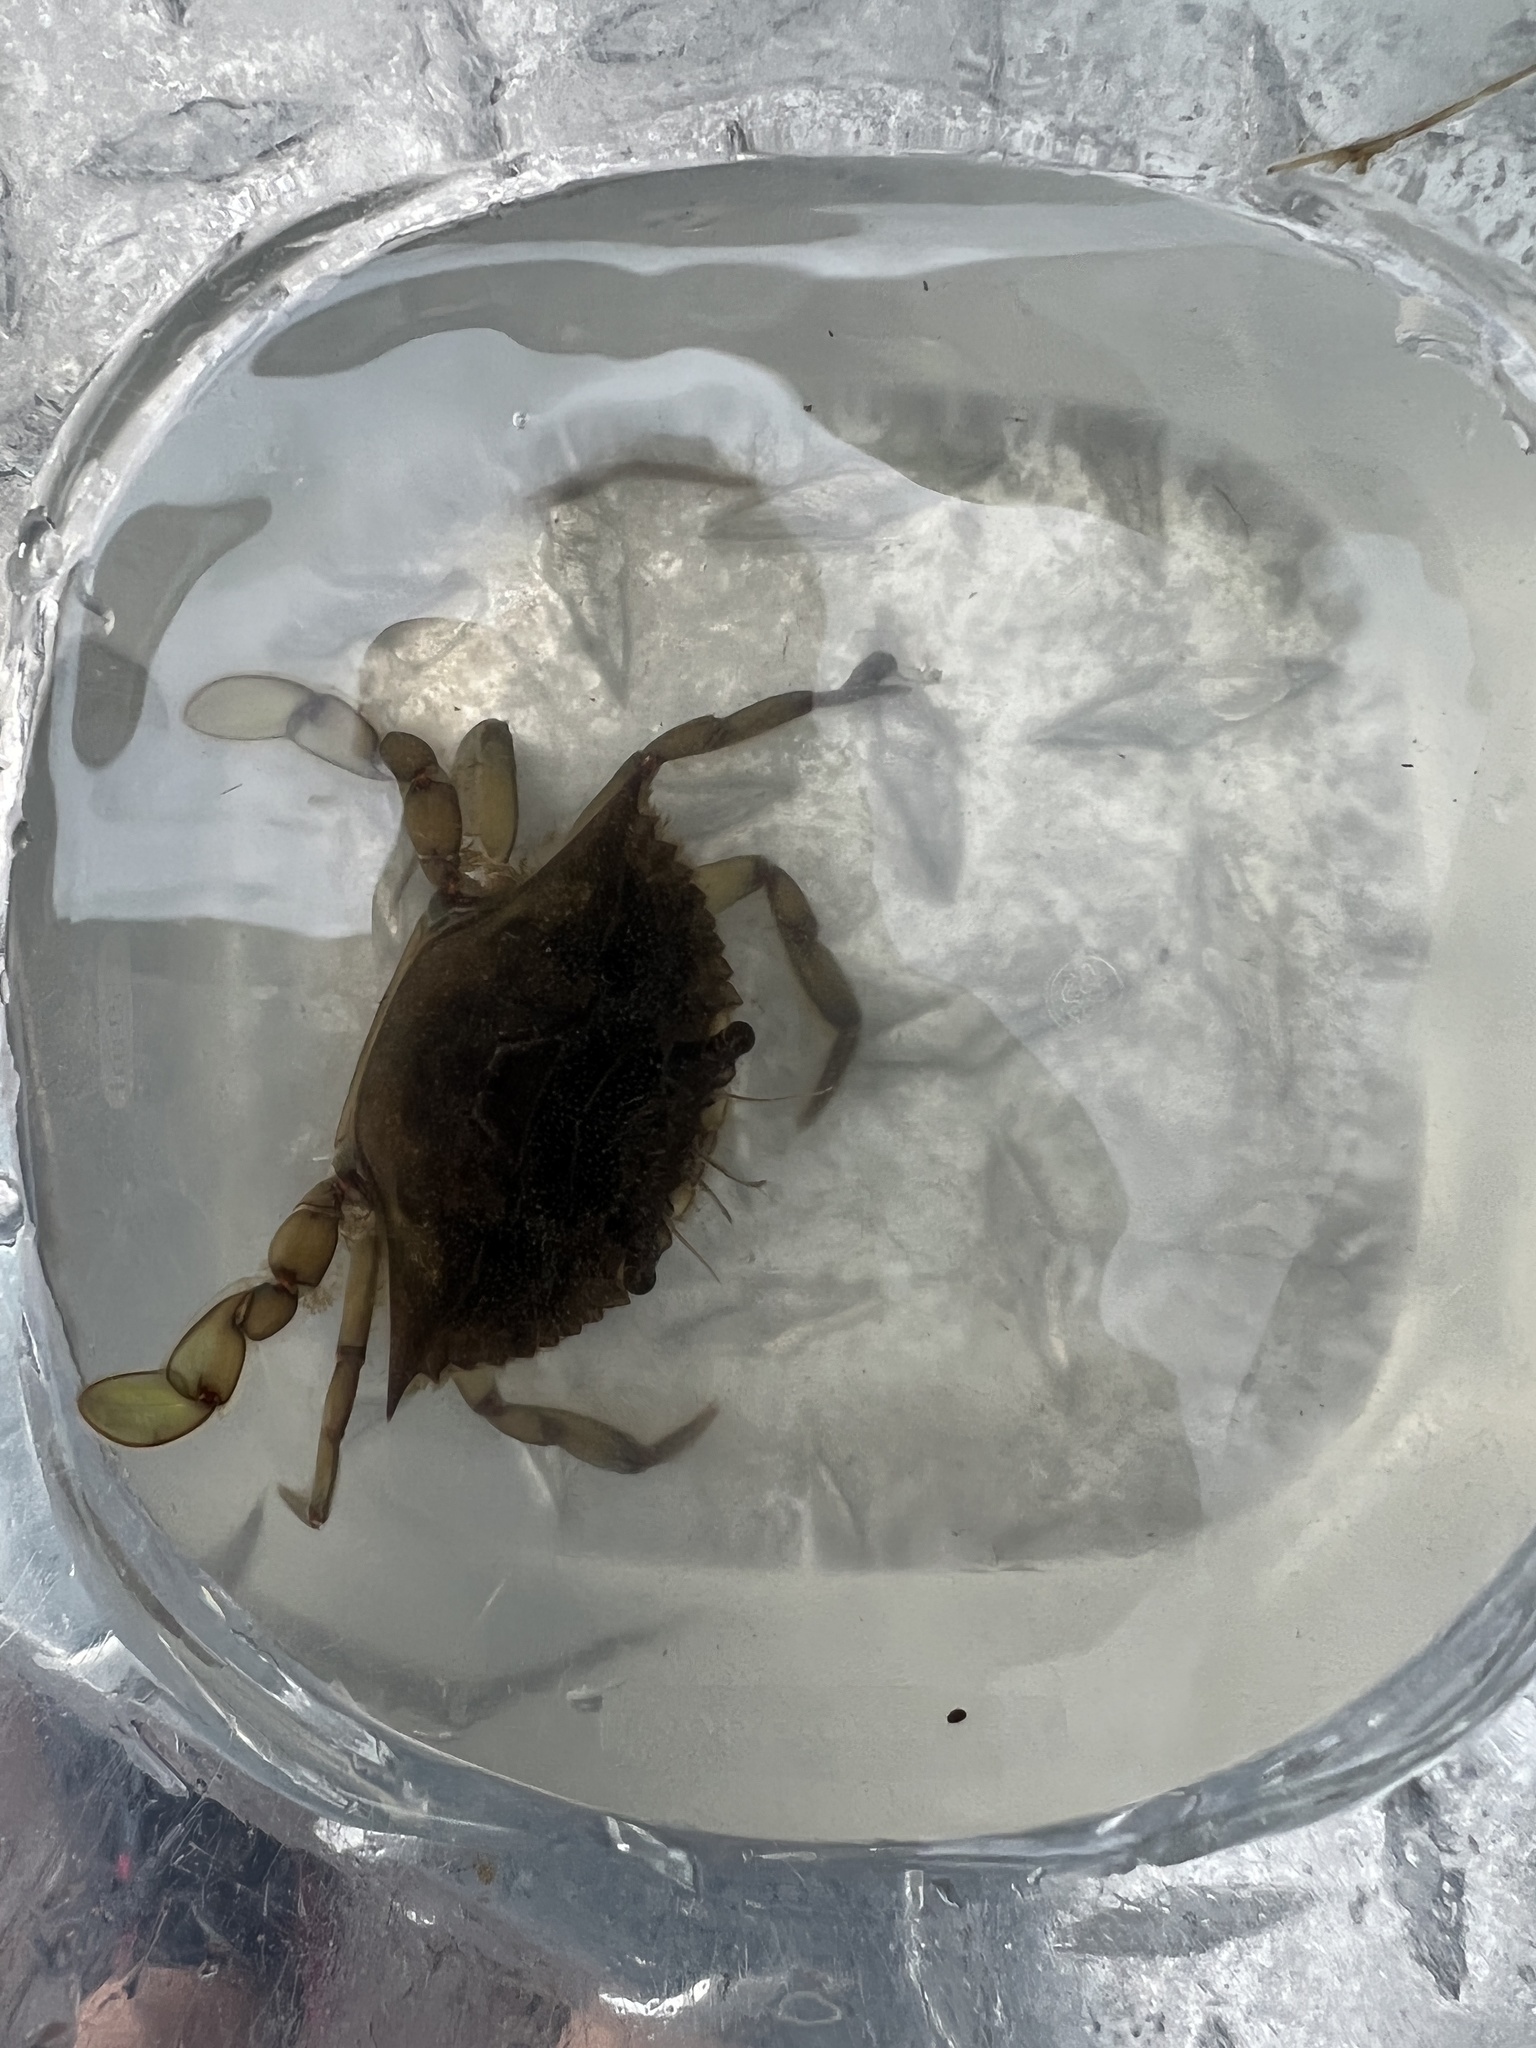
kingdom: Animalia
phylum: Arthropoda
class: Malacostraca
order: Decapoda
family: Portunidae
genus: Callinectes
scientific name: Callinectes sapidus
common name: Blue crab
